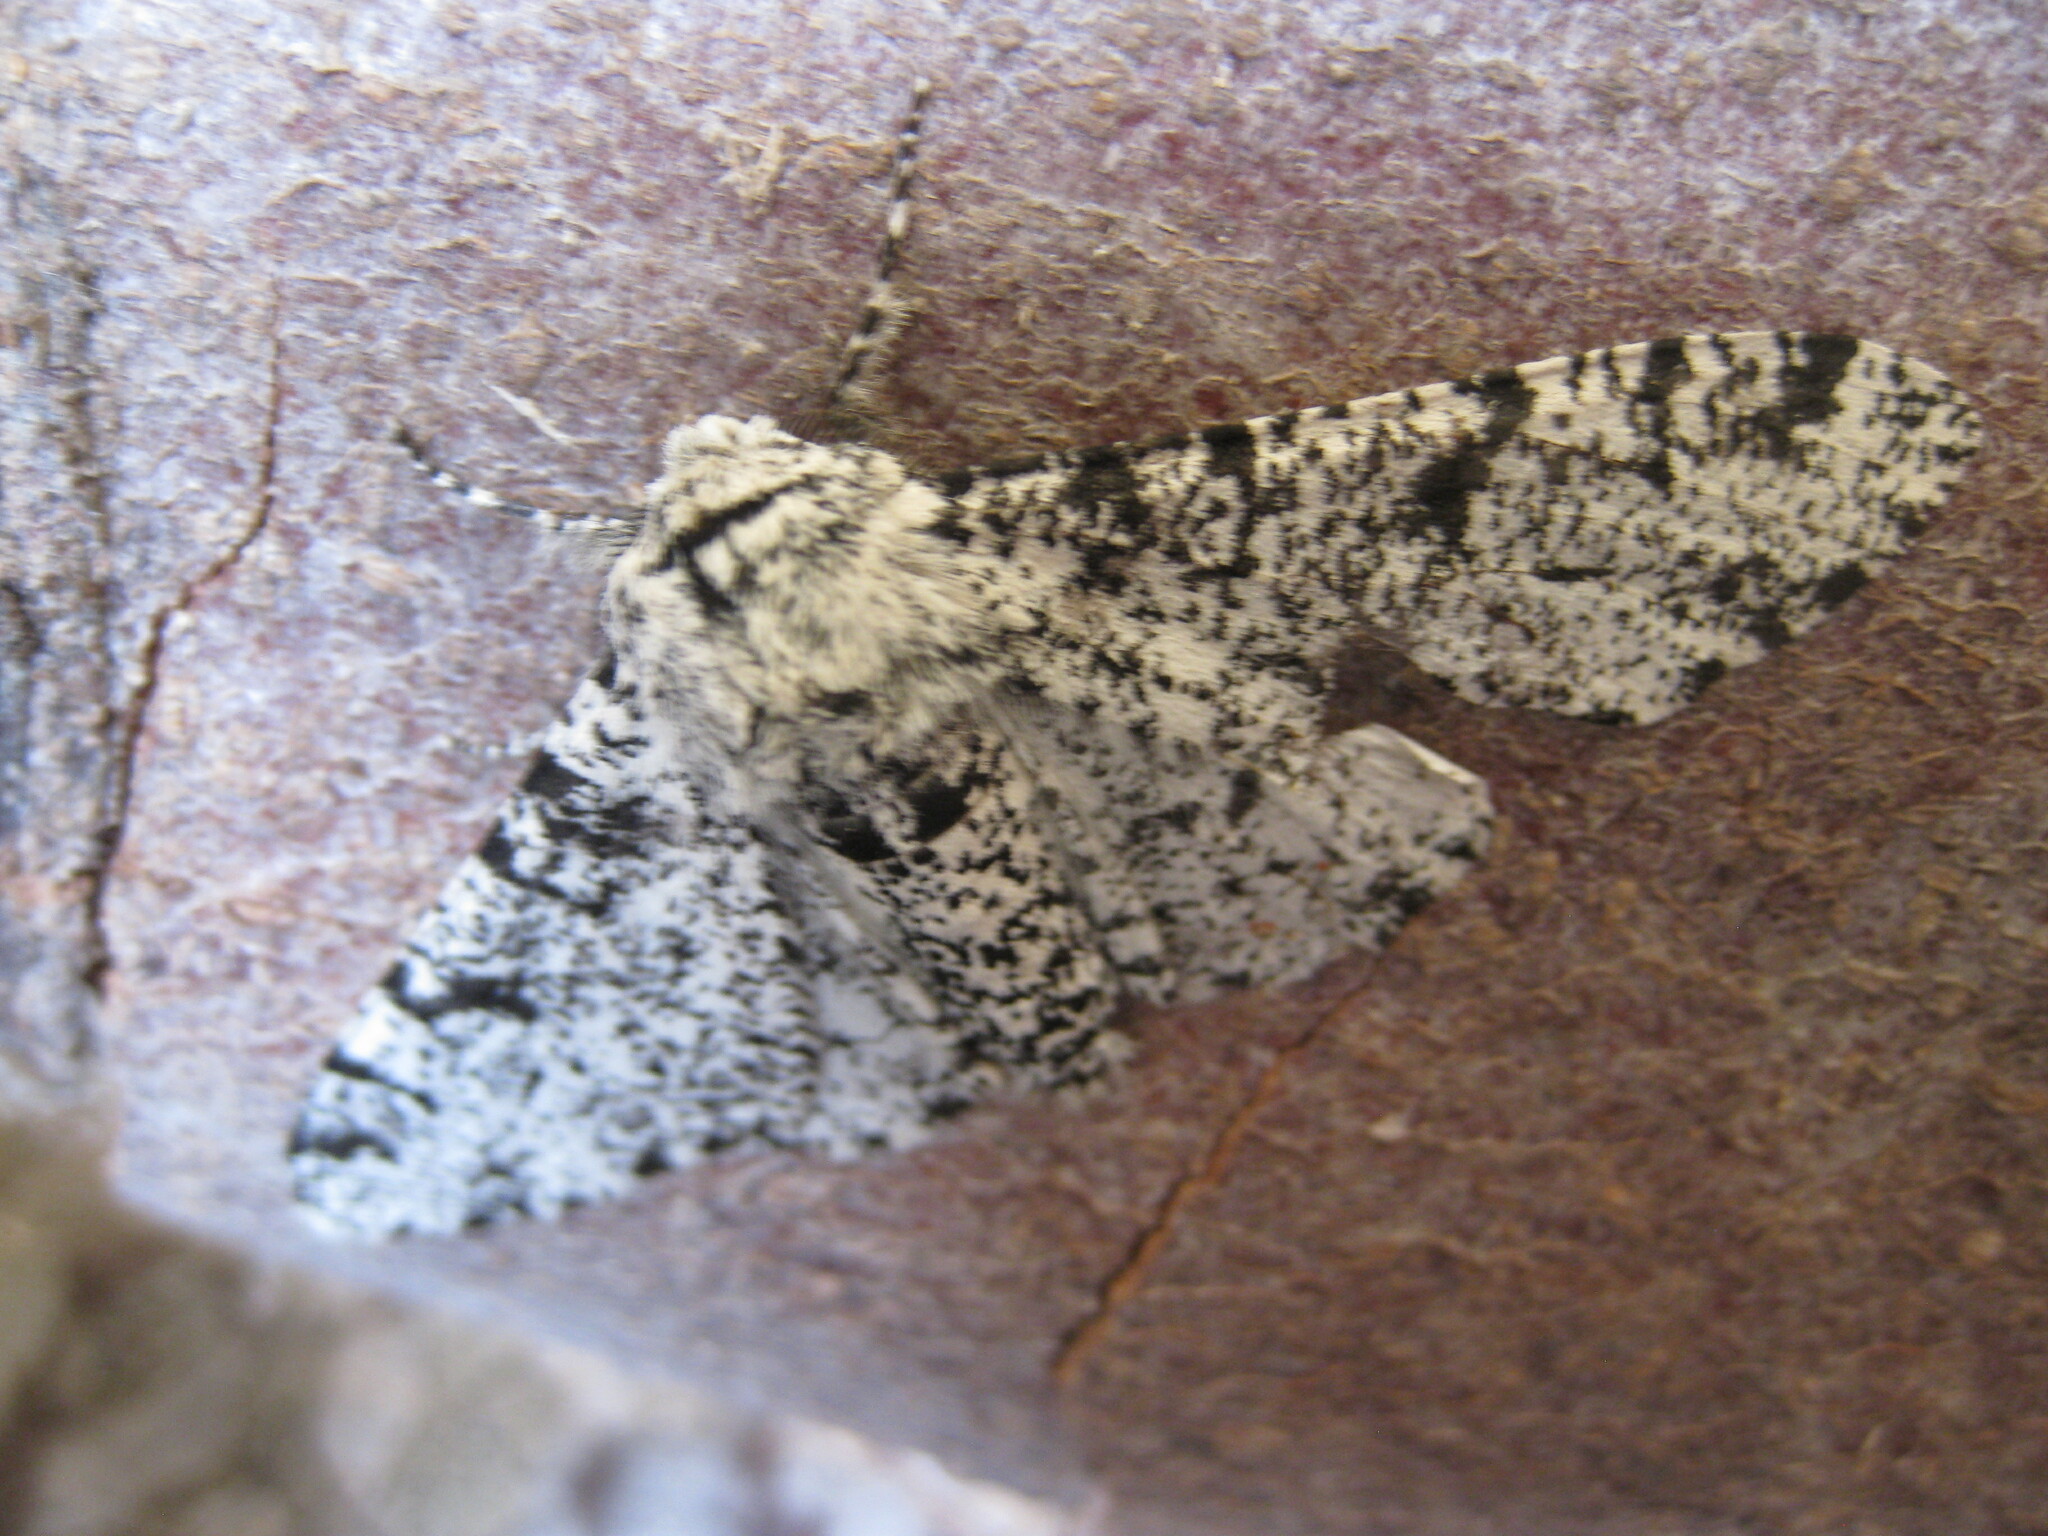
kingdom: Animalia
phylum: Arthropoda
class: Insecta
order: Lepidoptera
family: Geometridae
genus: Biston
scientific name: Biston betularia
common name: Peppered moth
